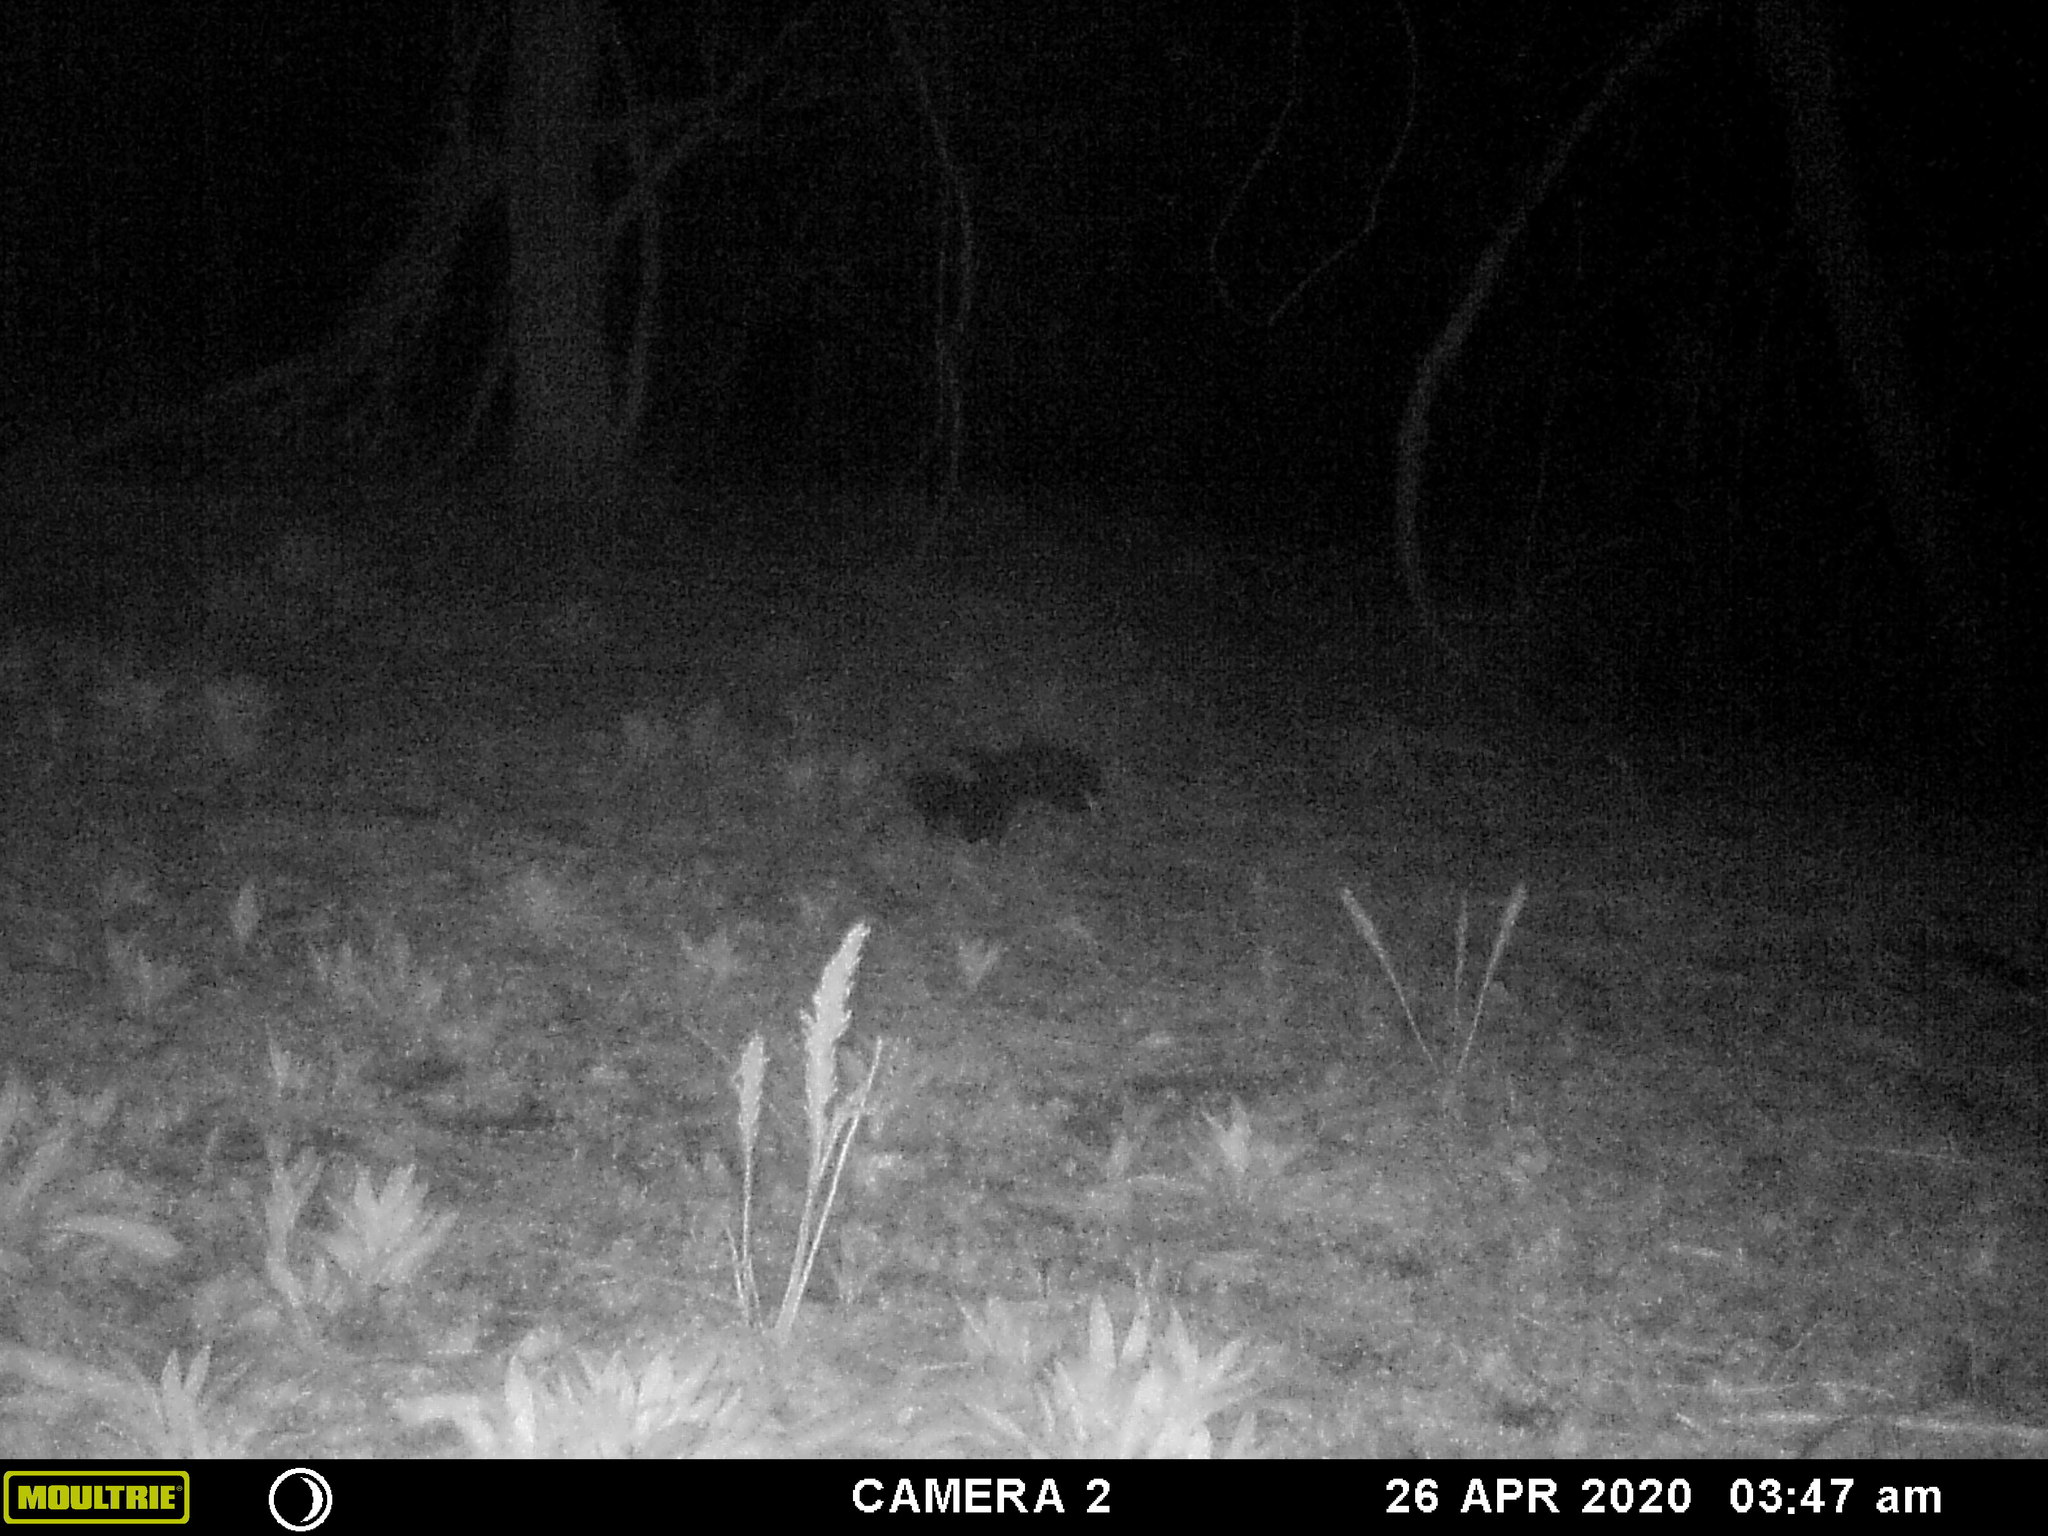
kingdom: Animalia
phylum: Chordata
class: Mammalia
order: Carnivora
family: Mephitidae
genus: Mephitis
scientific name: Mephitis mephitis
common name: Striped skunk
